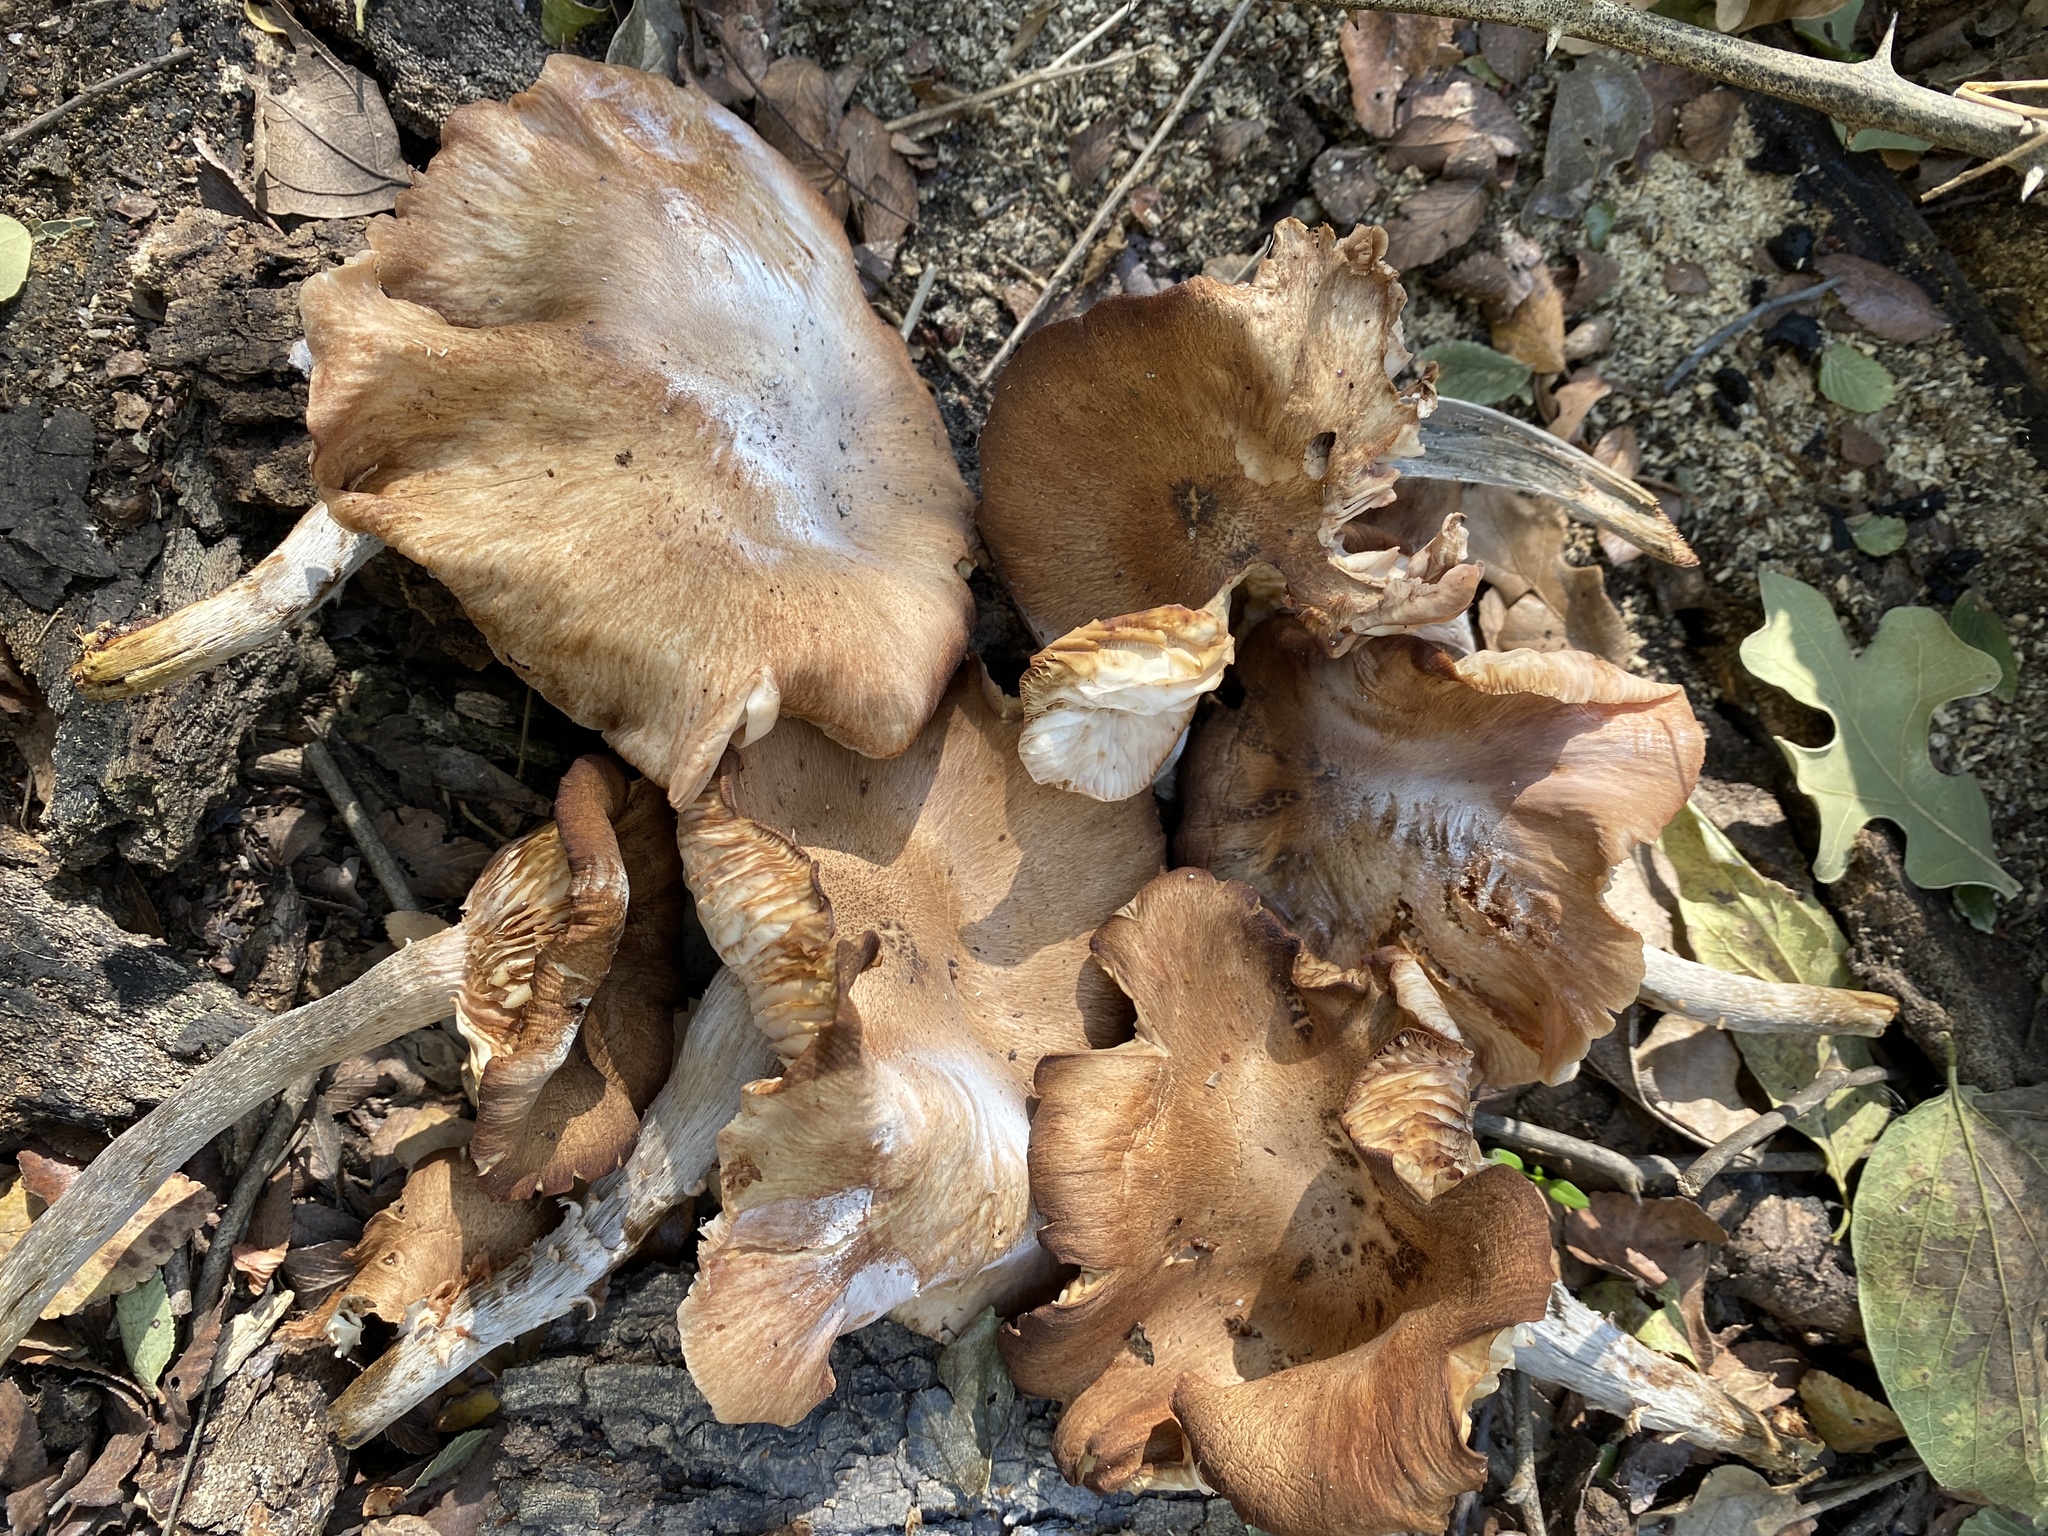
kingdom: Fungi
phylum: Basidiomycota
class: Agaricomycetes
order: Agaricales
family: Physalacriaceae
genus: Desarmillaria
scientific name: Desarmillaria caespitosa
